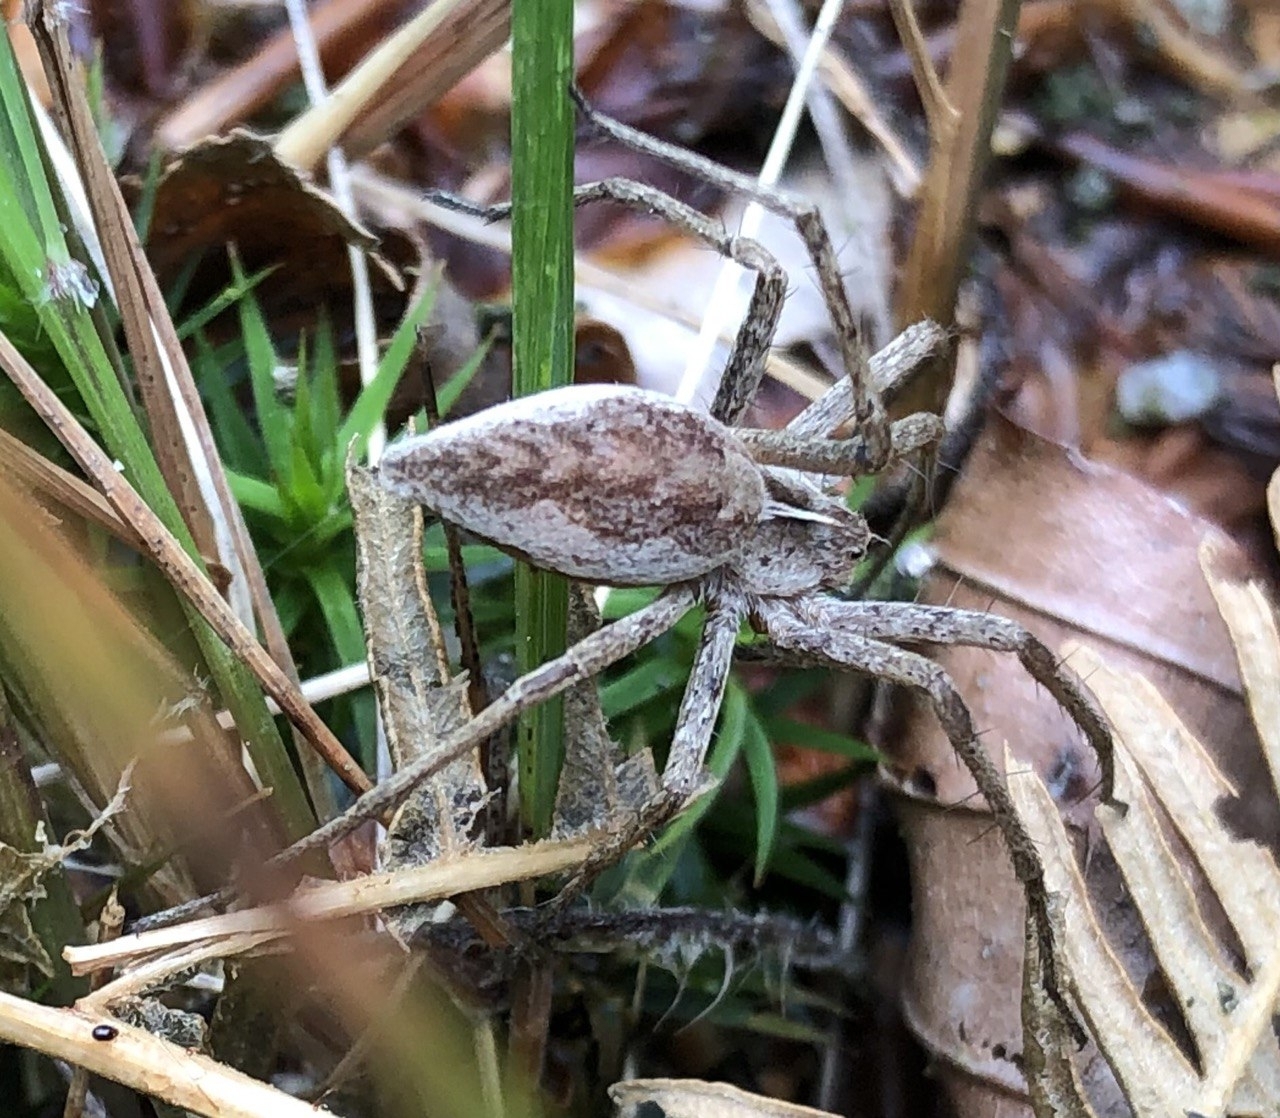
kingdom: Animalia
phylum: Arthropoda
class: Arachnida
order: Araneae
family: Pisauridae
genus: Pisaura
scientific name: Pisaura mirabilis
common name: Tent spider
